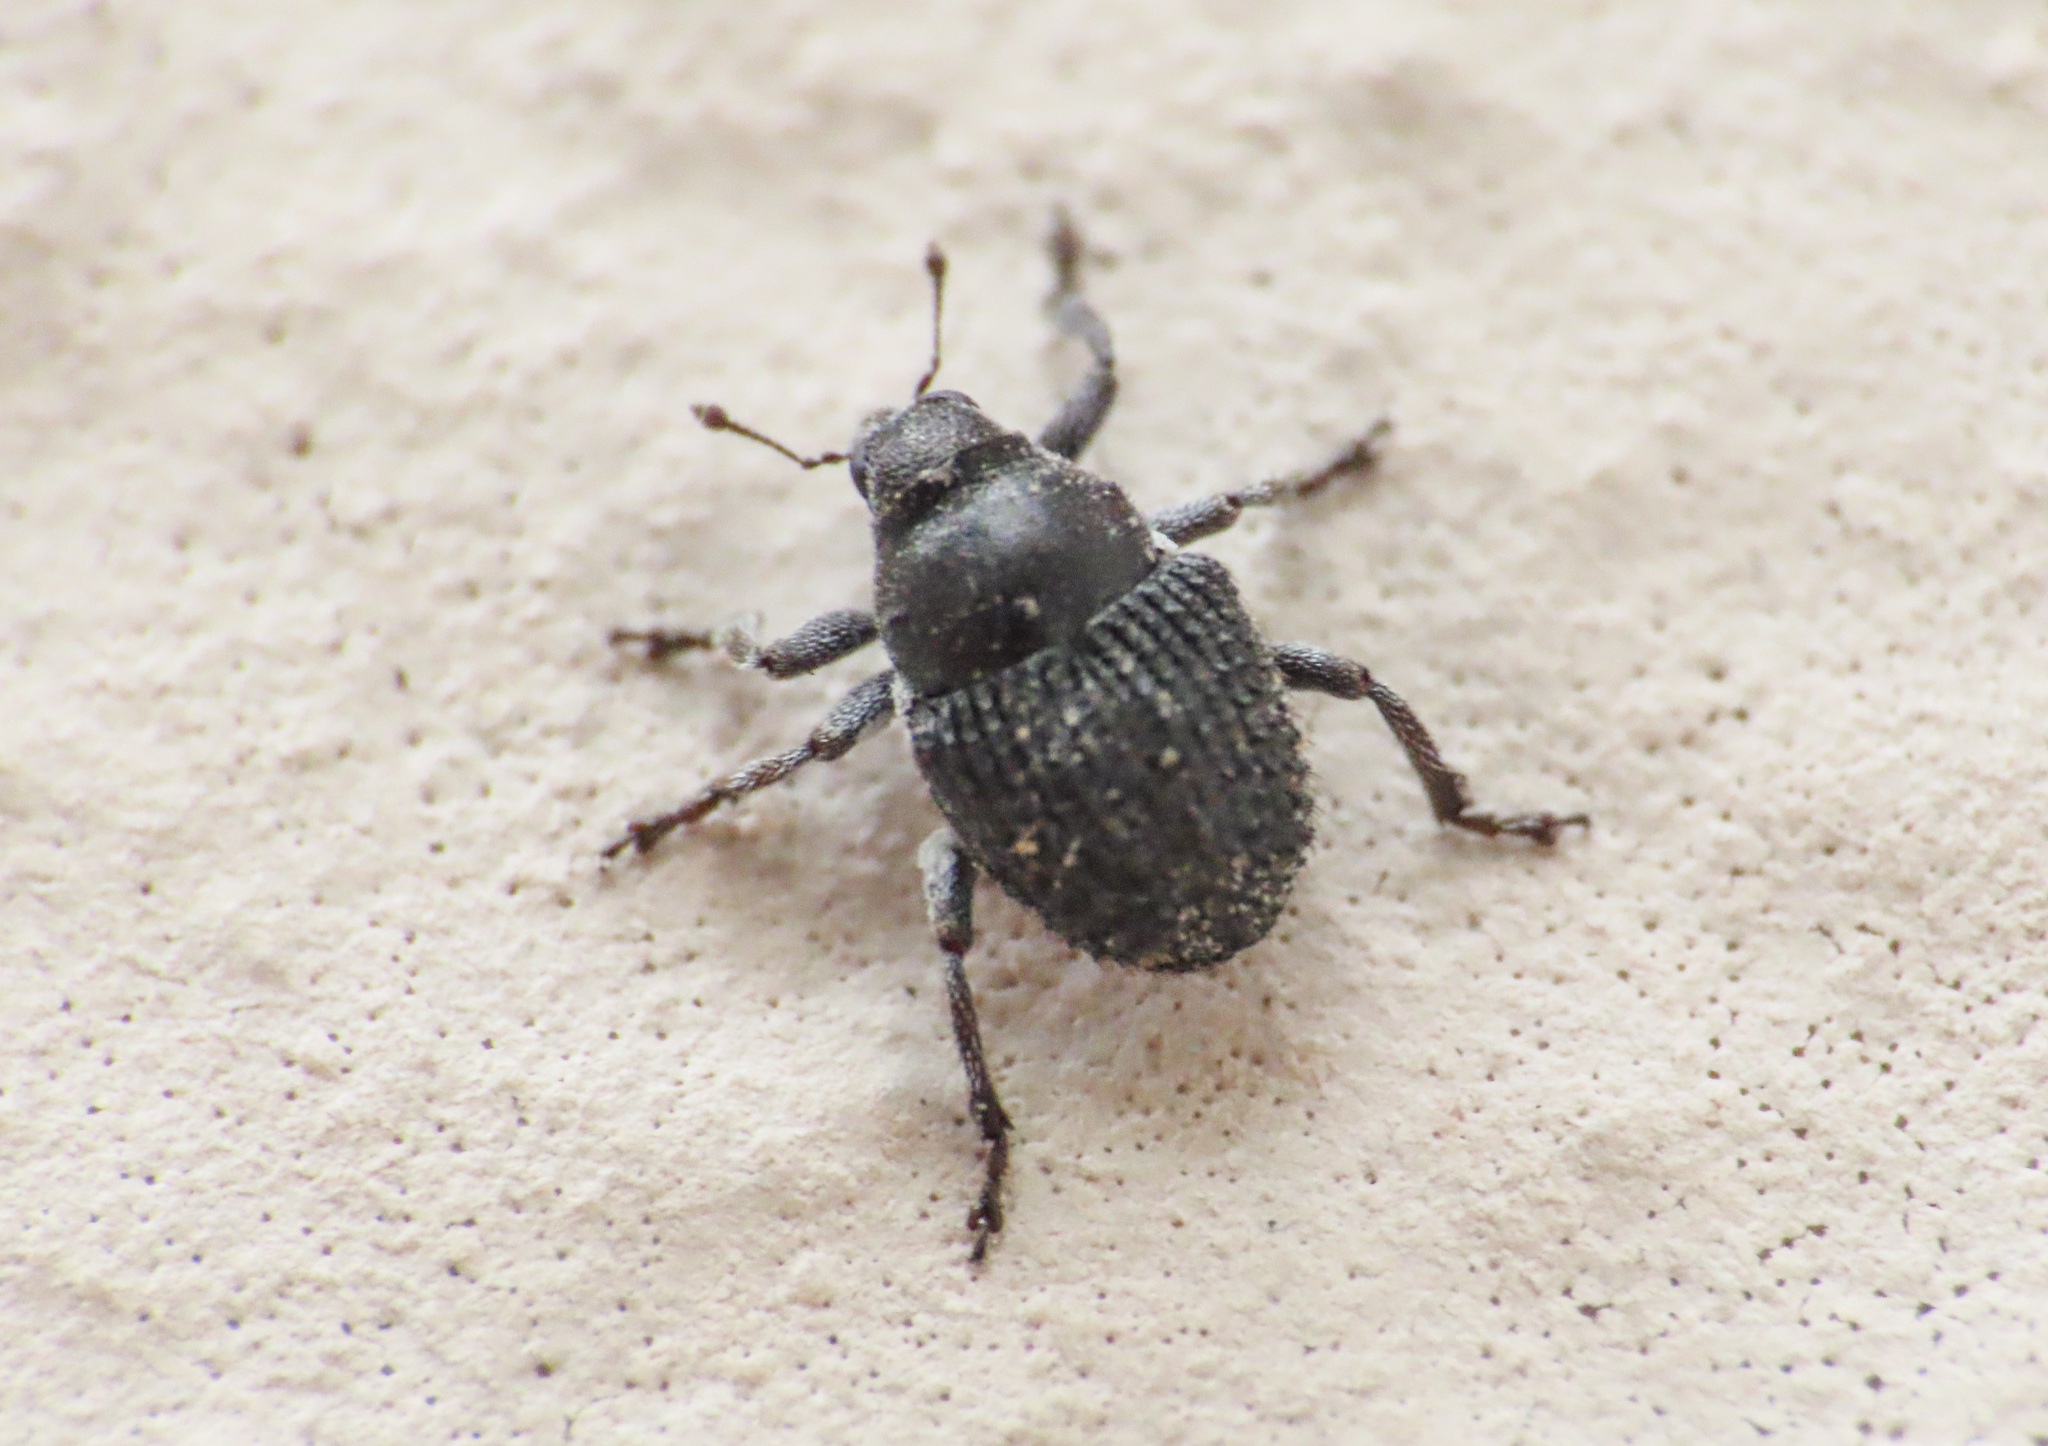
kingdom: Animalia
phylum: Arthropoda
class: Insecta
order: Coleoptera
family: Curculionidae
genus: Zacladus
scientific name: Zacladus exiguus
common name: Bloody cranesbill weevil
